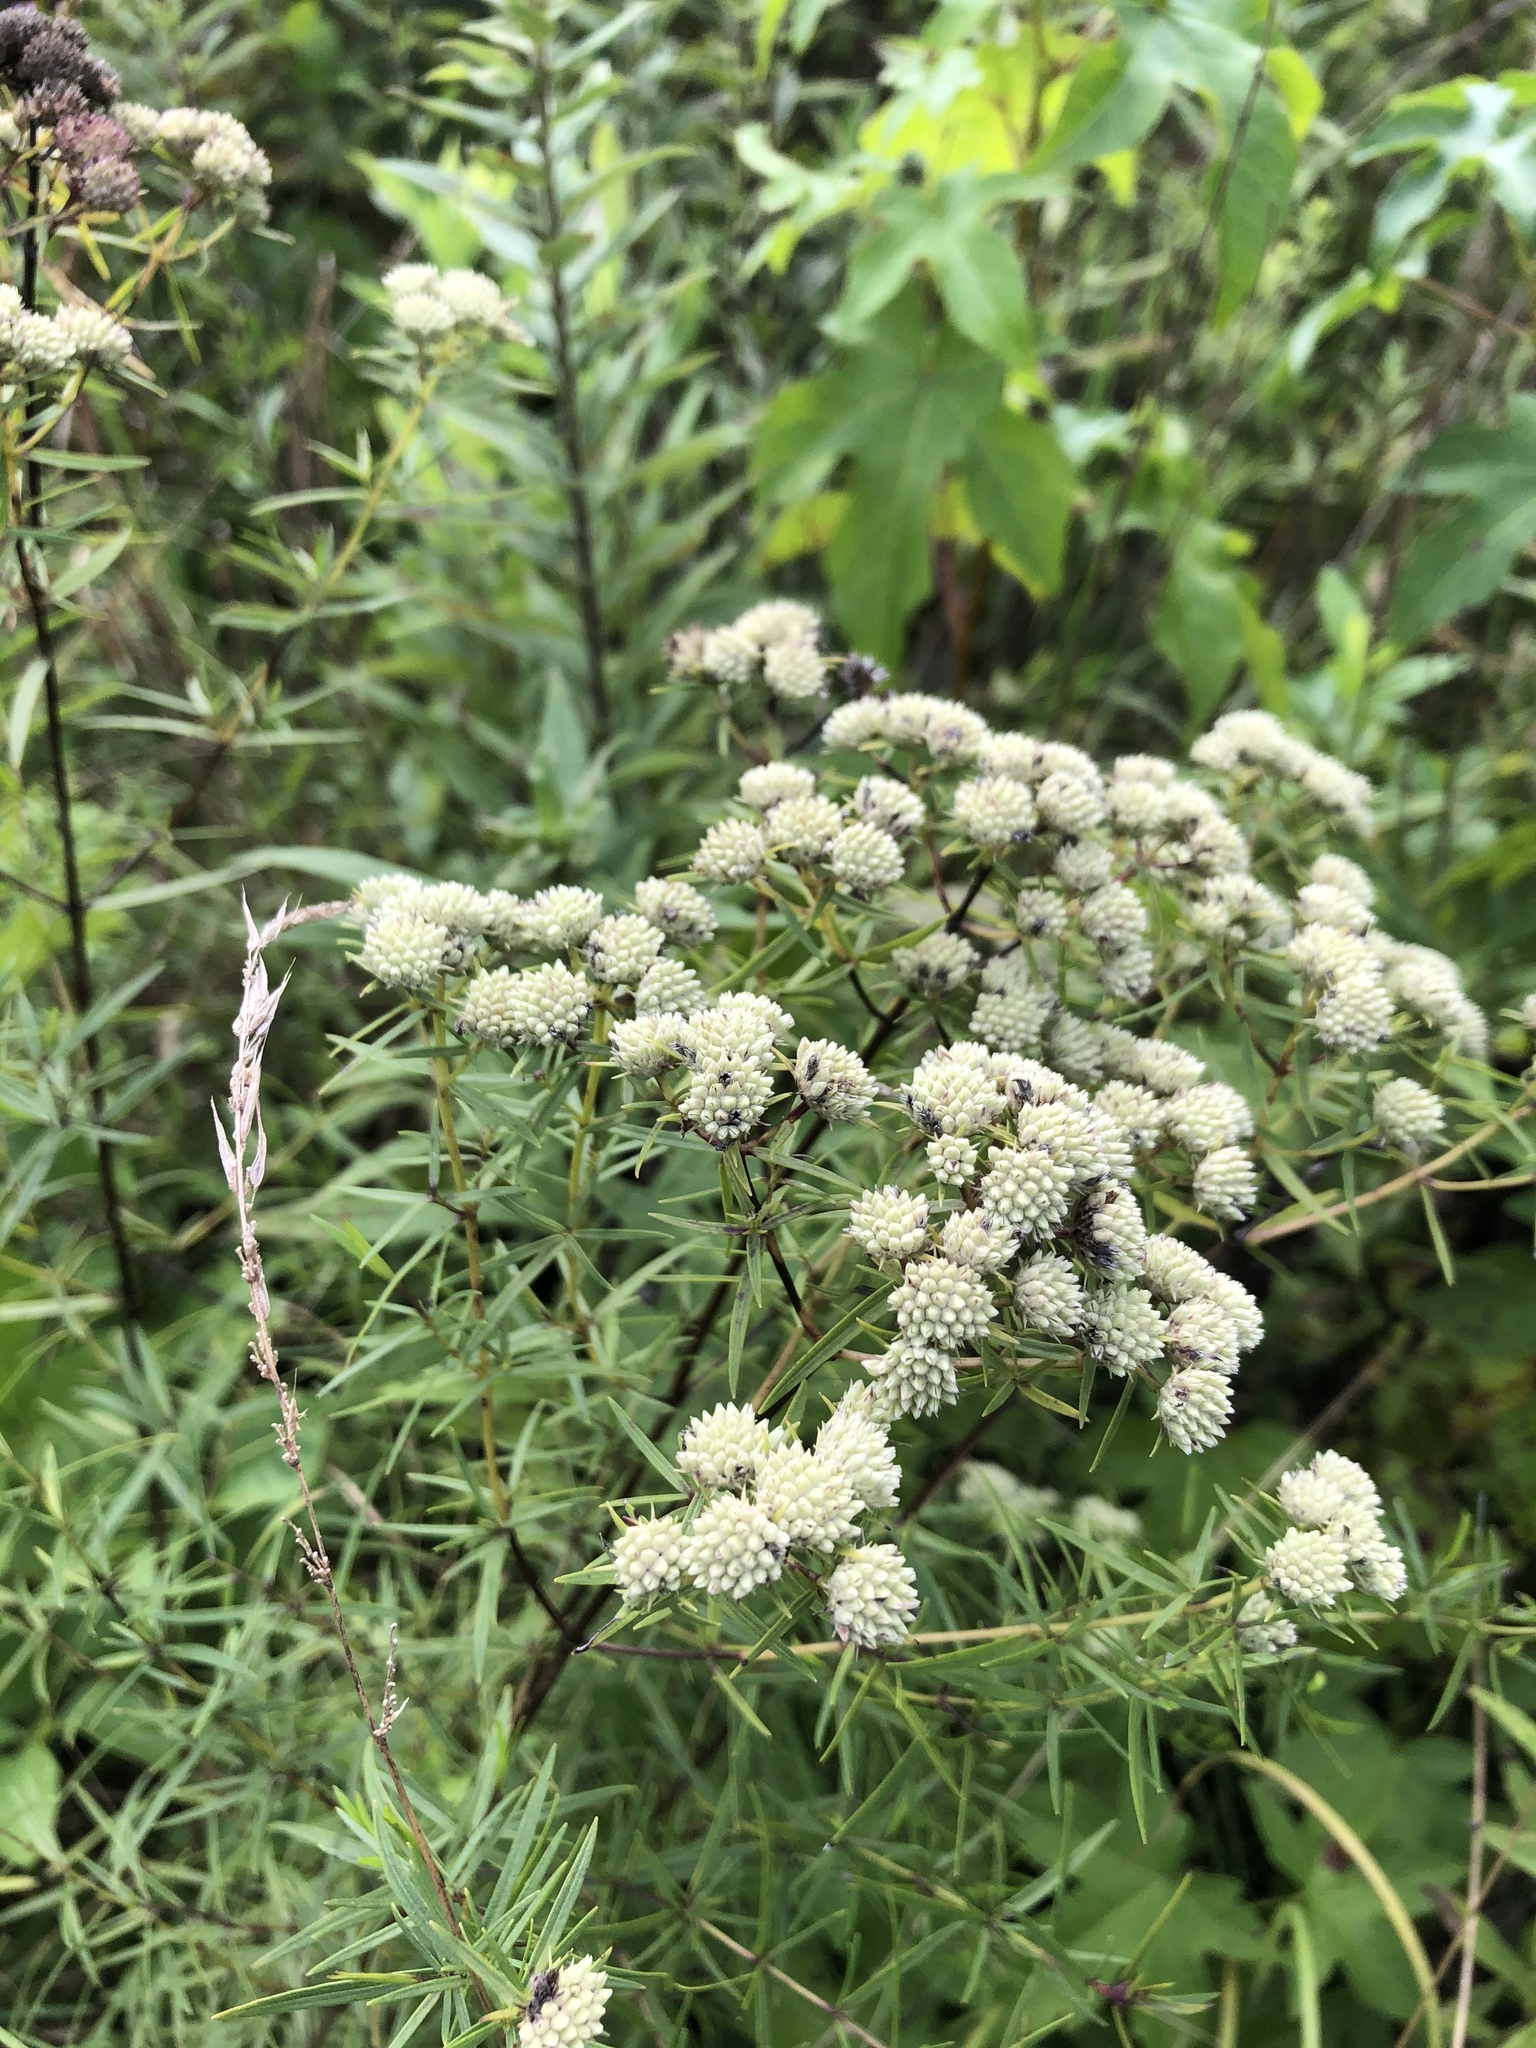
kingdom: Plantae
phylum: Tracheophyta
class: Magnoliopsida
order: Lamiales
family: Lamiaceae
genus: Pycnanthemum
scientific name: Pycnanthemum tenuifolium
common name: Narrow-leaf mountain-mint
